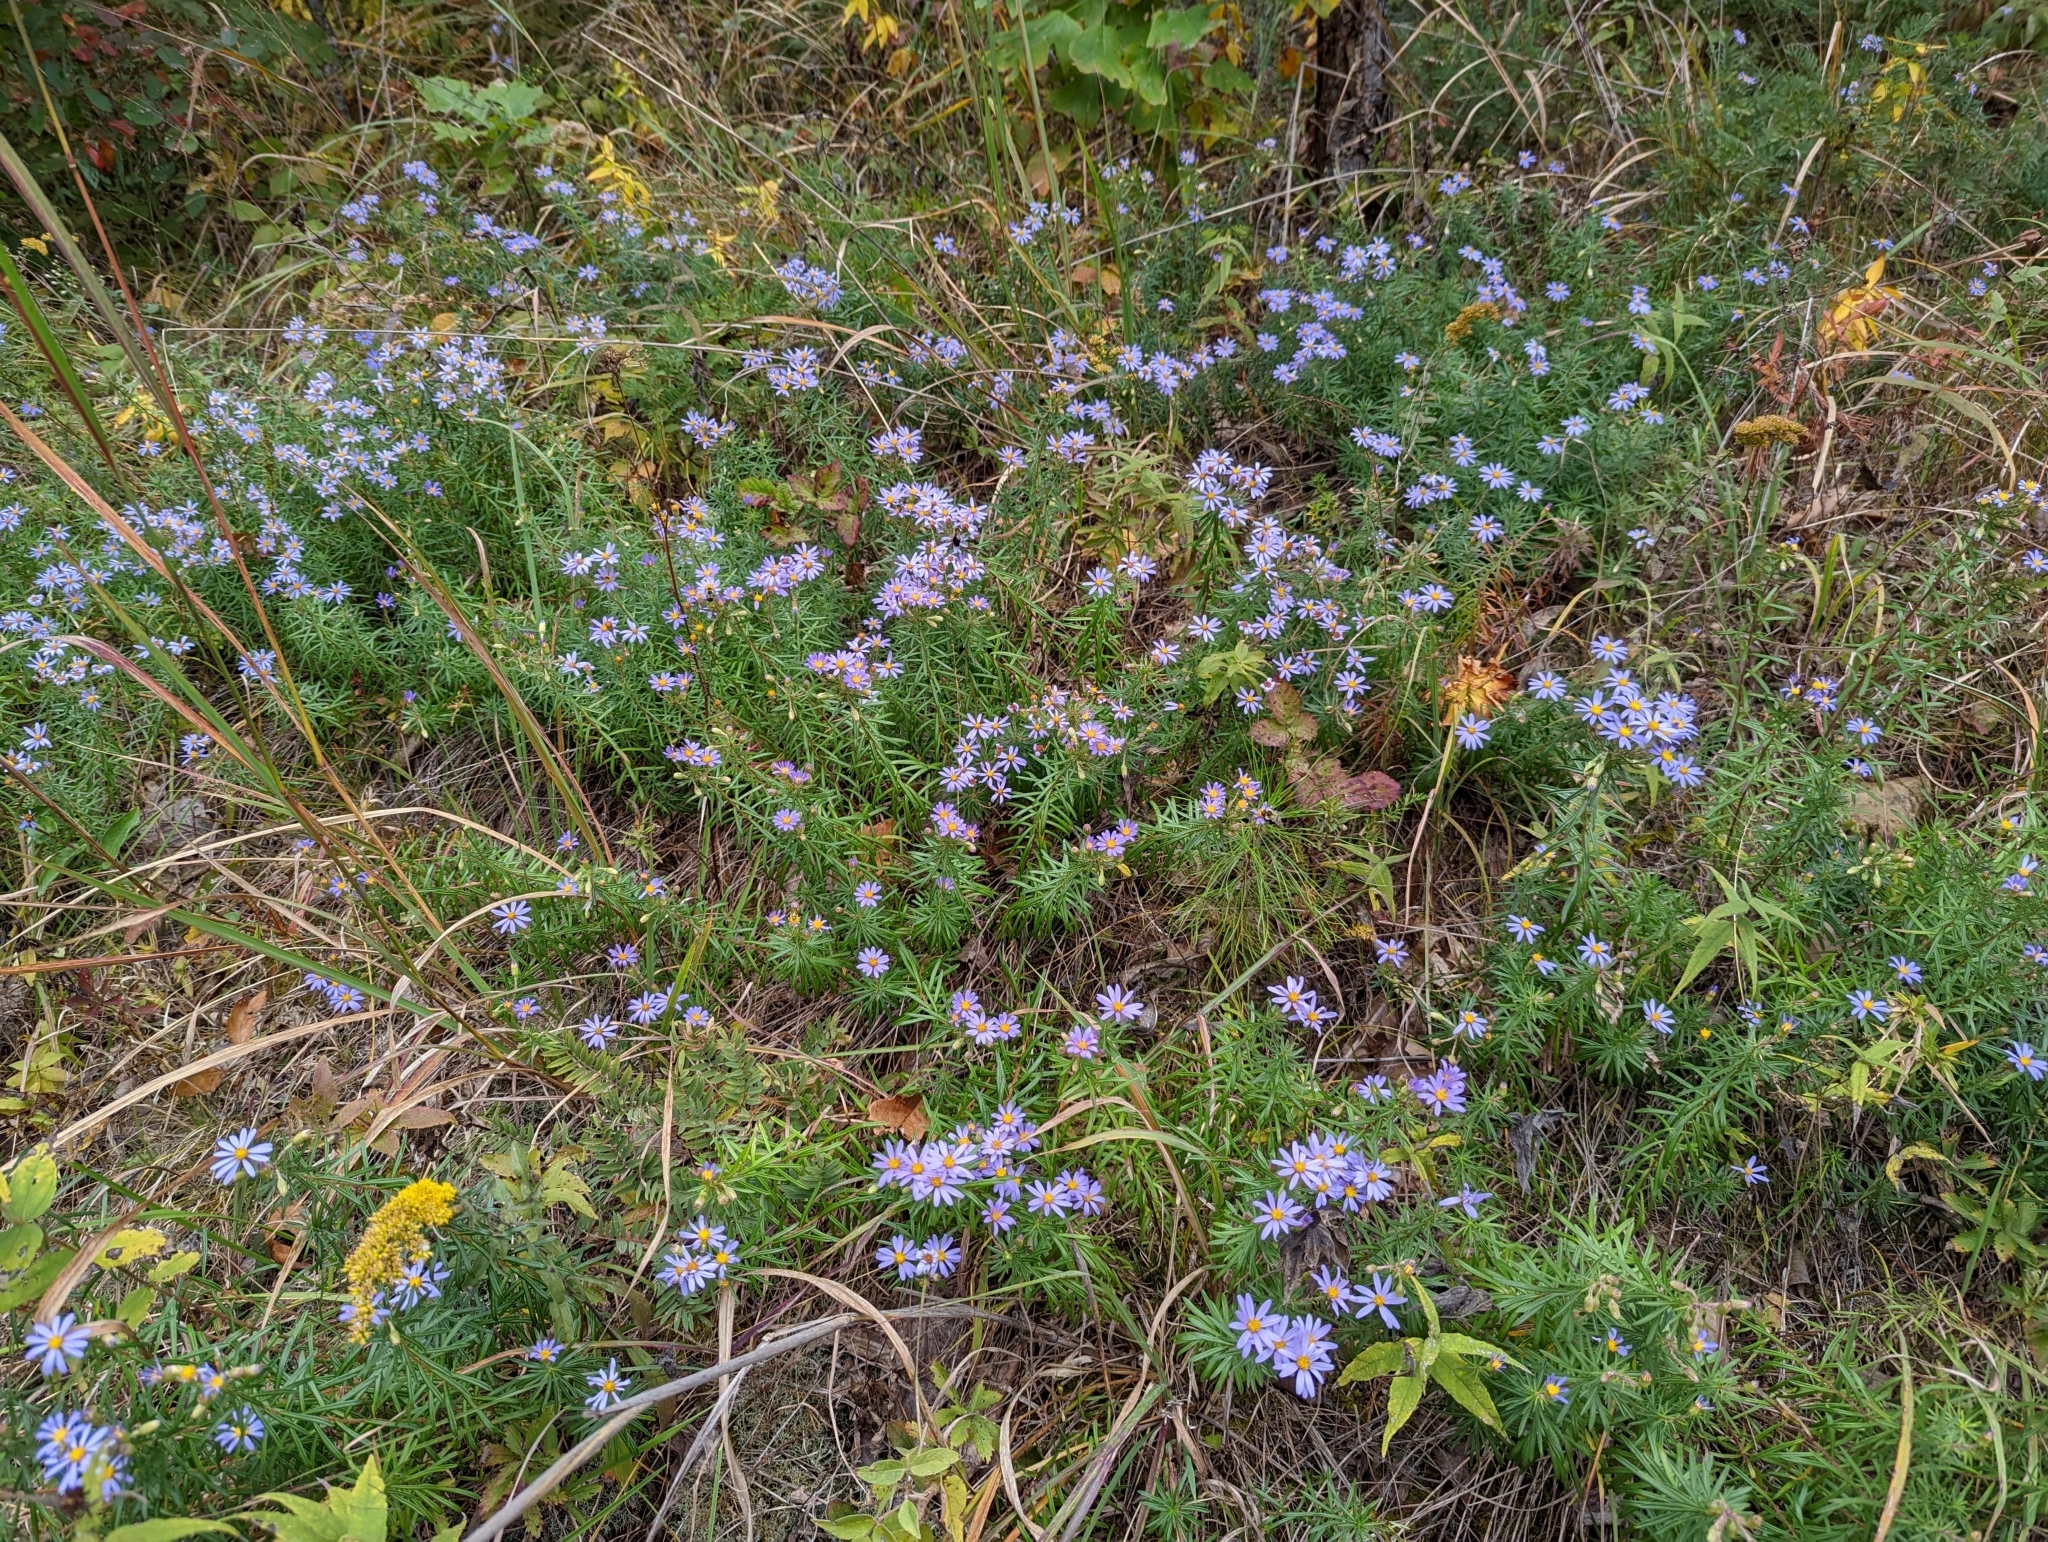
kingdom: Plantae
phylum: Tracheophyta
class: Magnoliopsida
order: Asterales
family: Asteraceae
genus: Ionactis
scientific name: Ionactis linariifolia
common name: Flax-leaf aster
